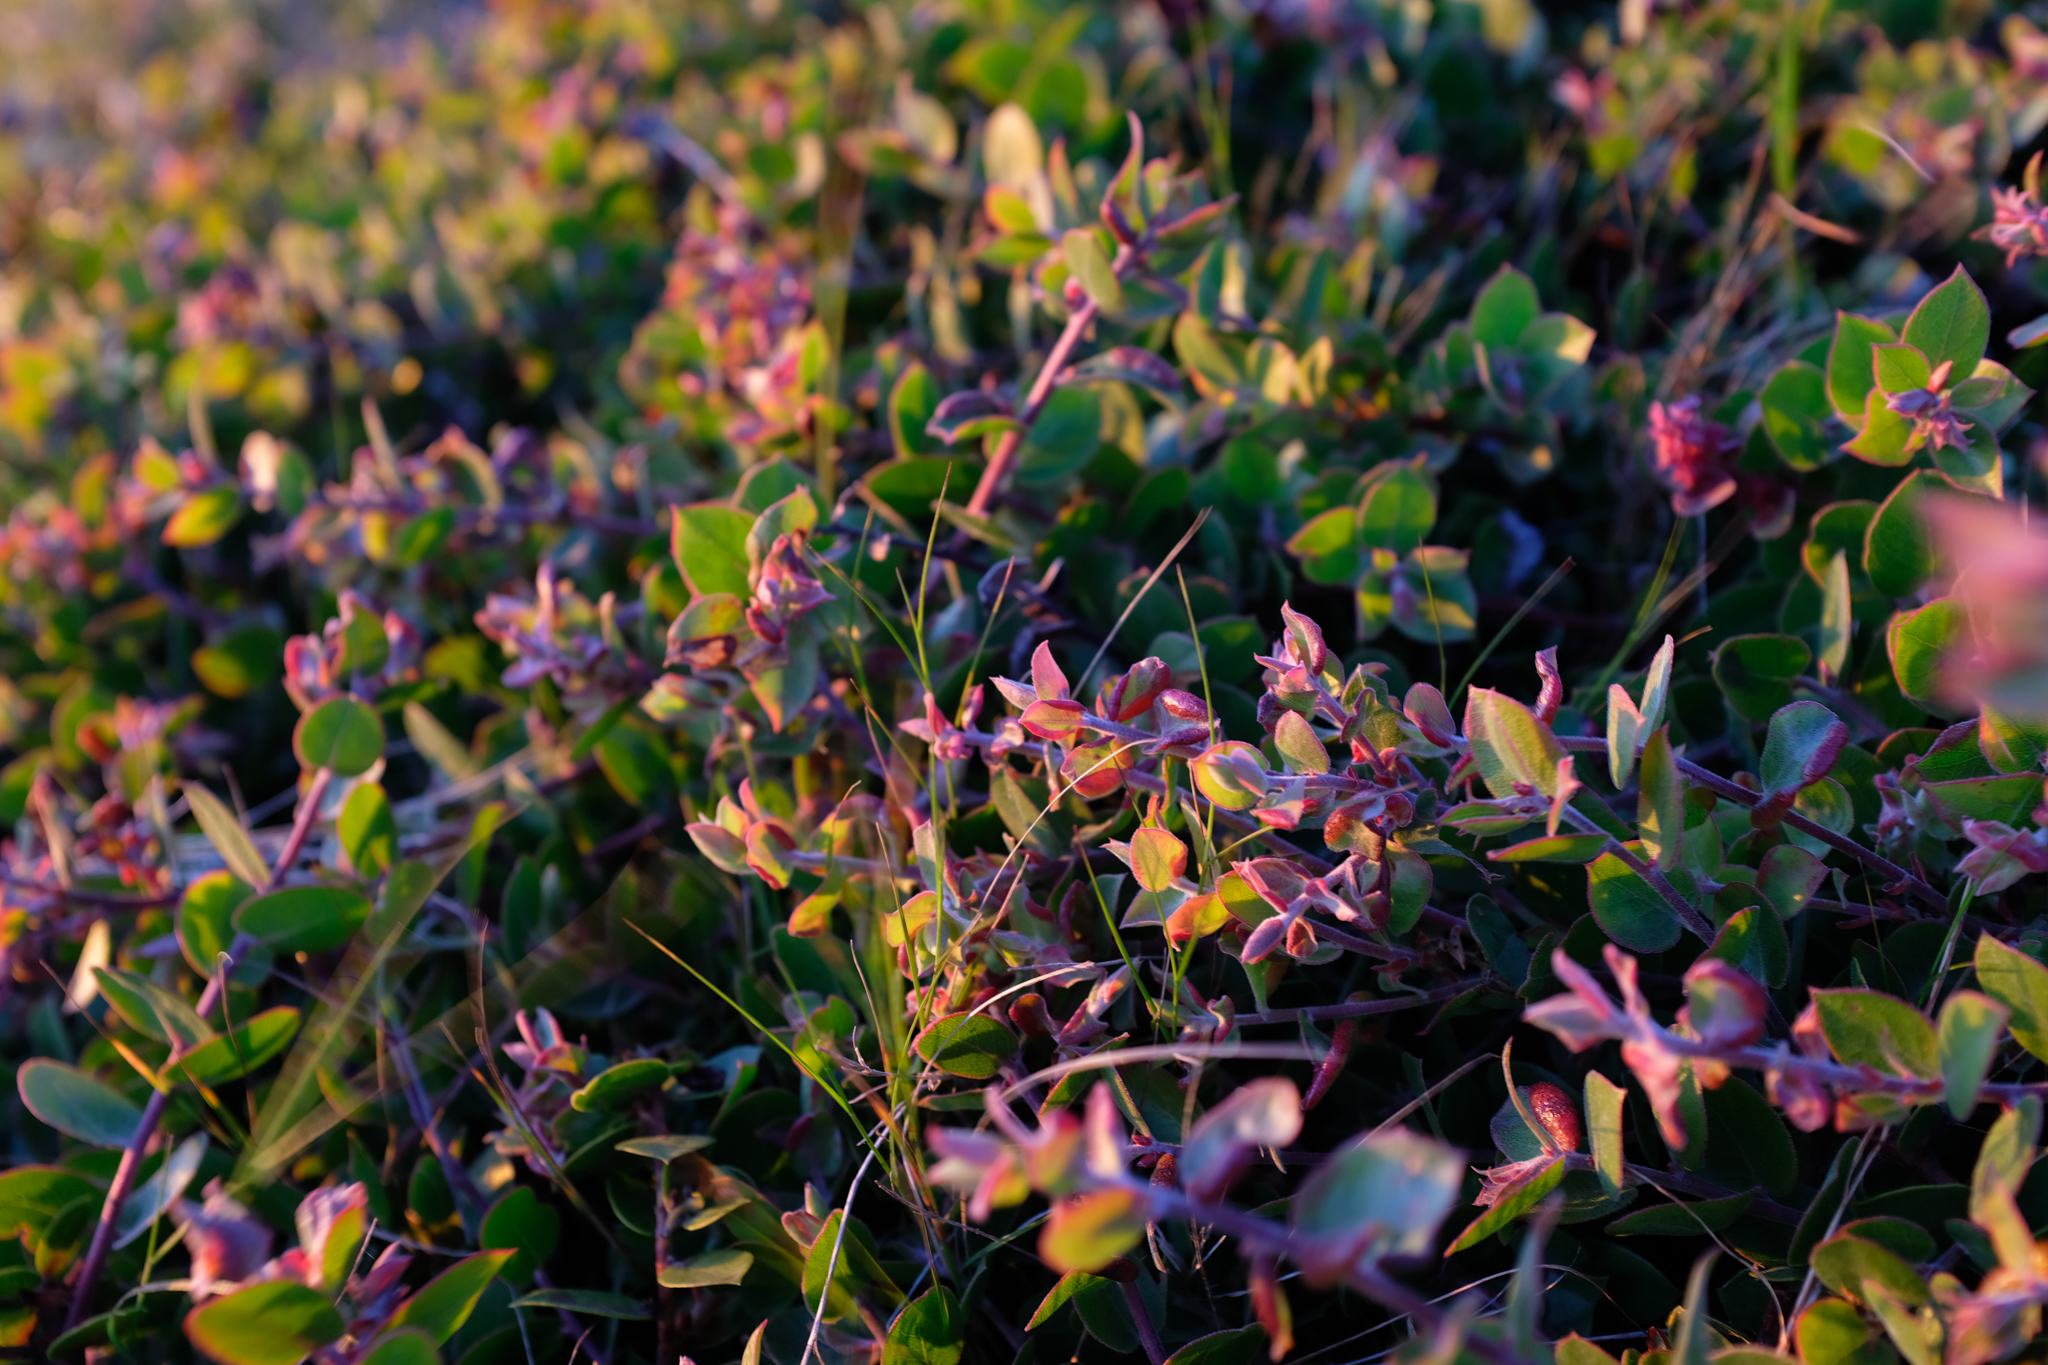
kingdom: Plantae
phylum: Tracheophyta
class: Magnoliopsida
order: Ericales
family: Ericaceae
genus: Arctostaphylos
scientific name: Arctostaphylos cruzensis
